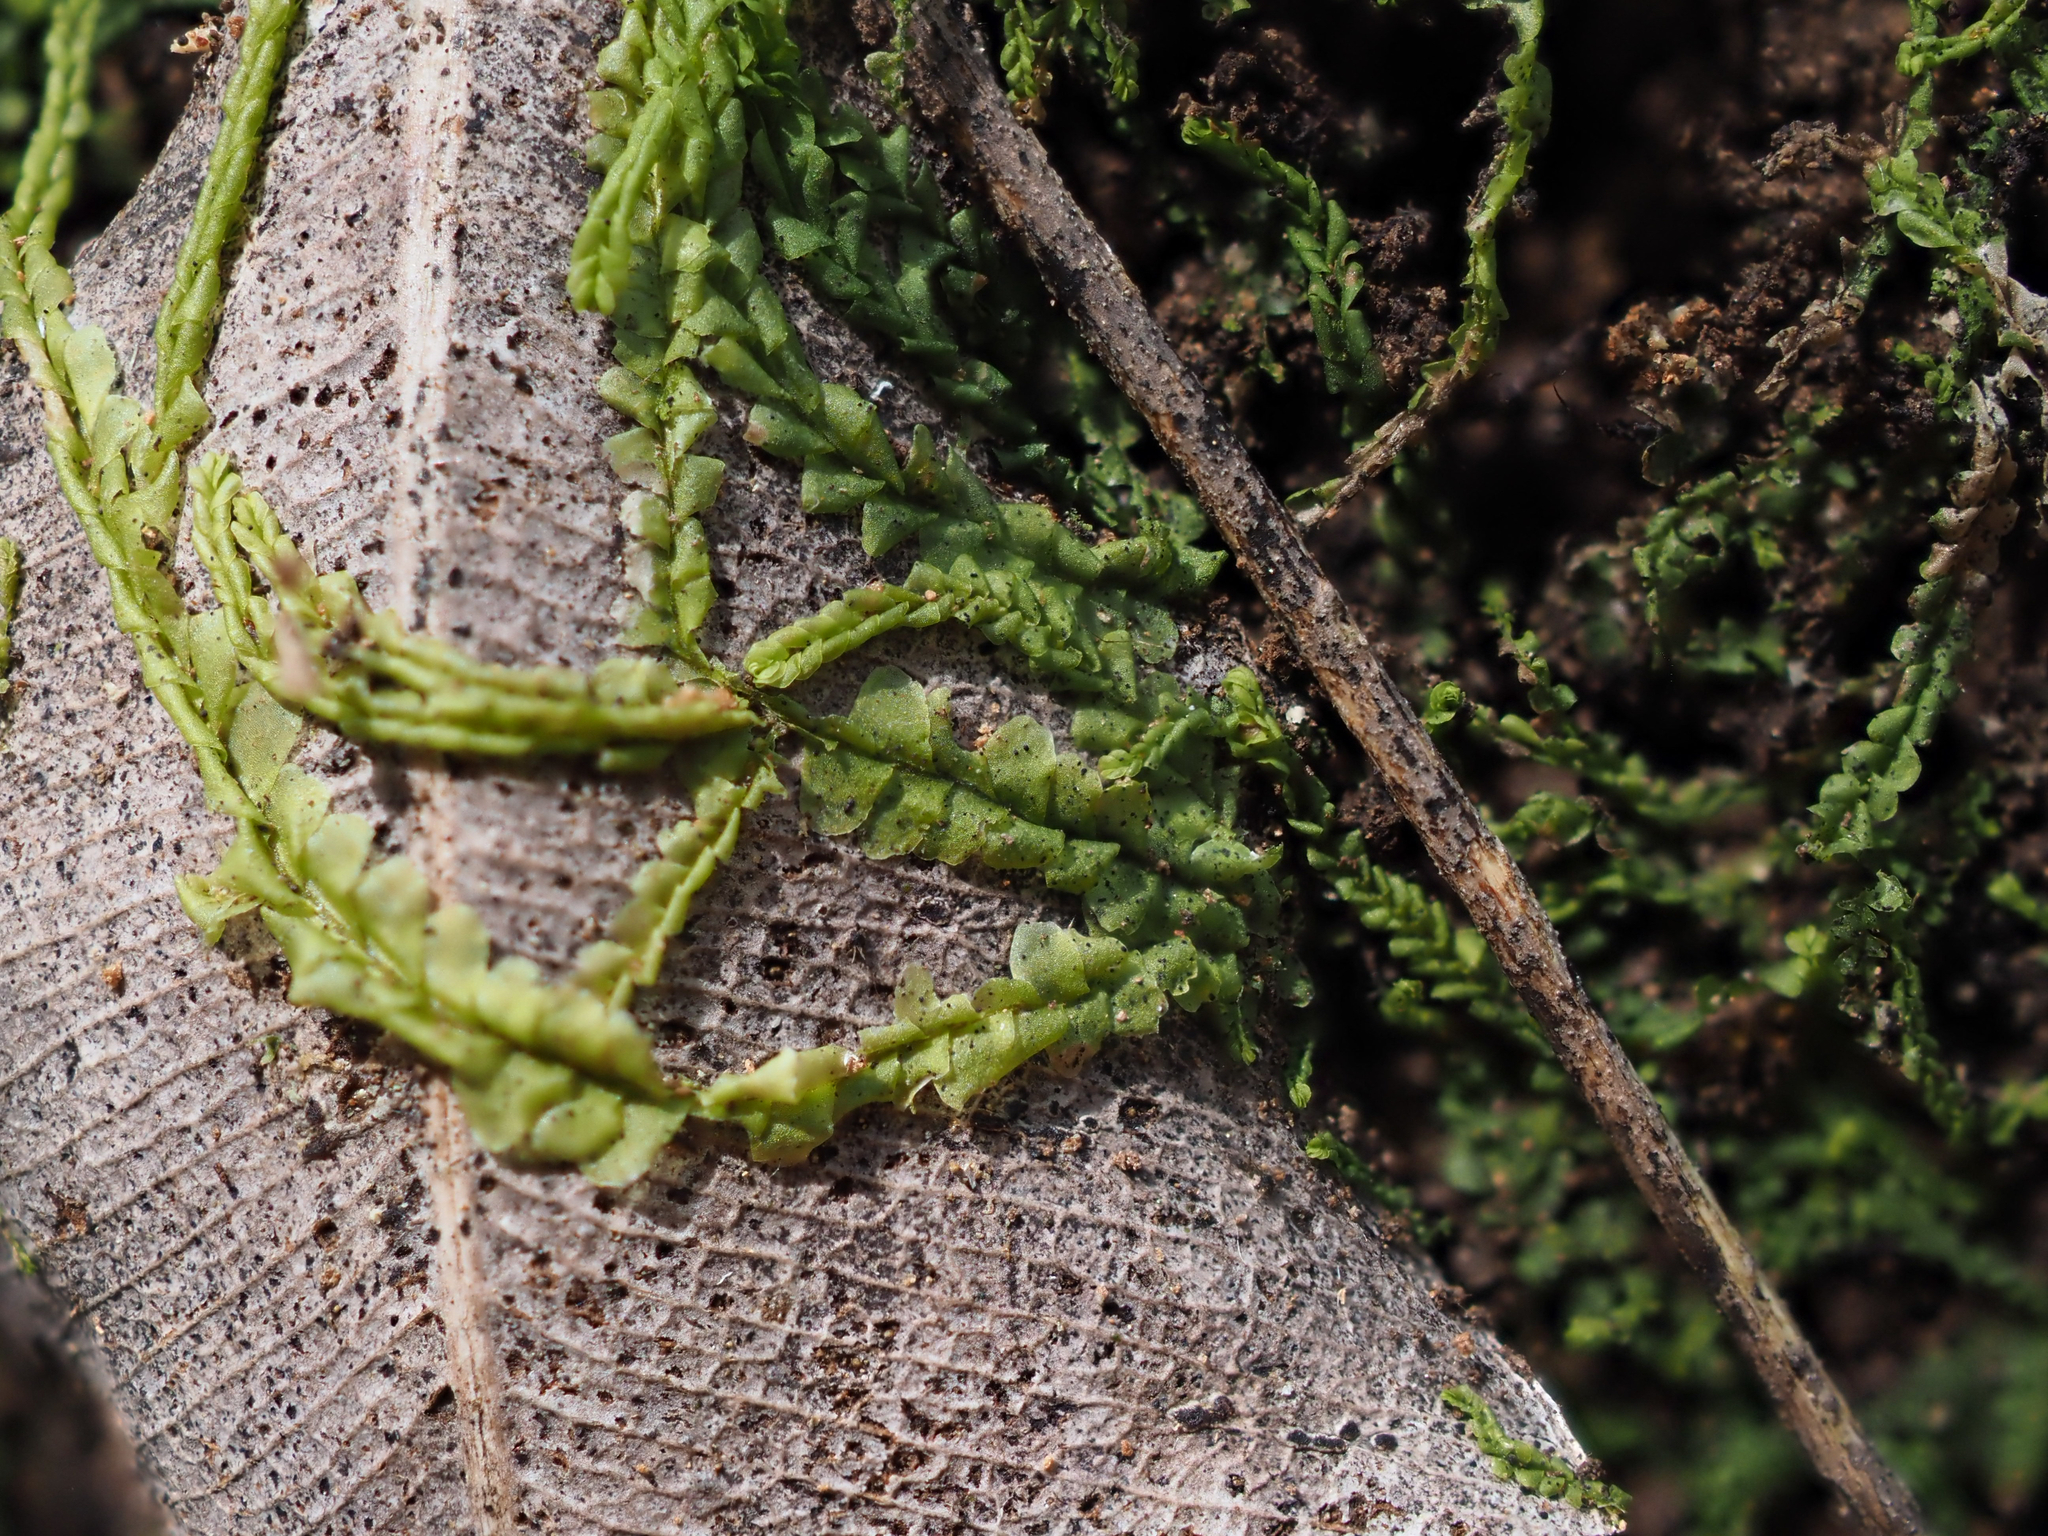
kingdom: Plantae
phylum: Marchantiophyta
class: Jungermanniopsida
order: Jungermanniales
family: Lophocoleaceae
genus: Lophocolea
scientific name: Lophocolea semiteres
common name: Southern crestwort
